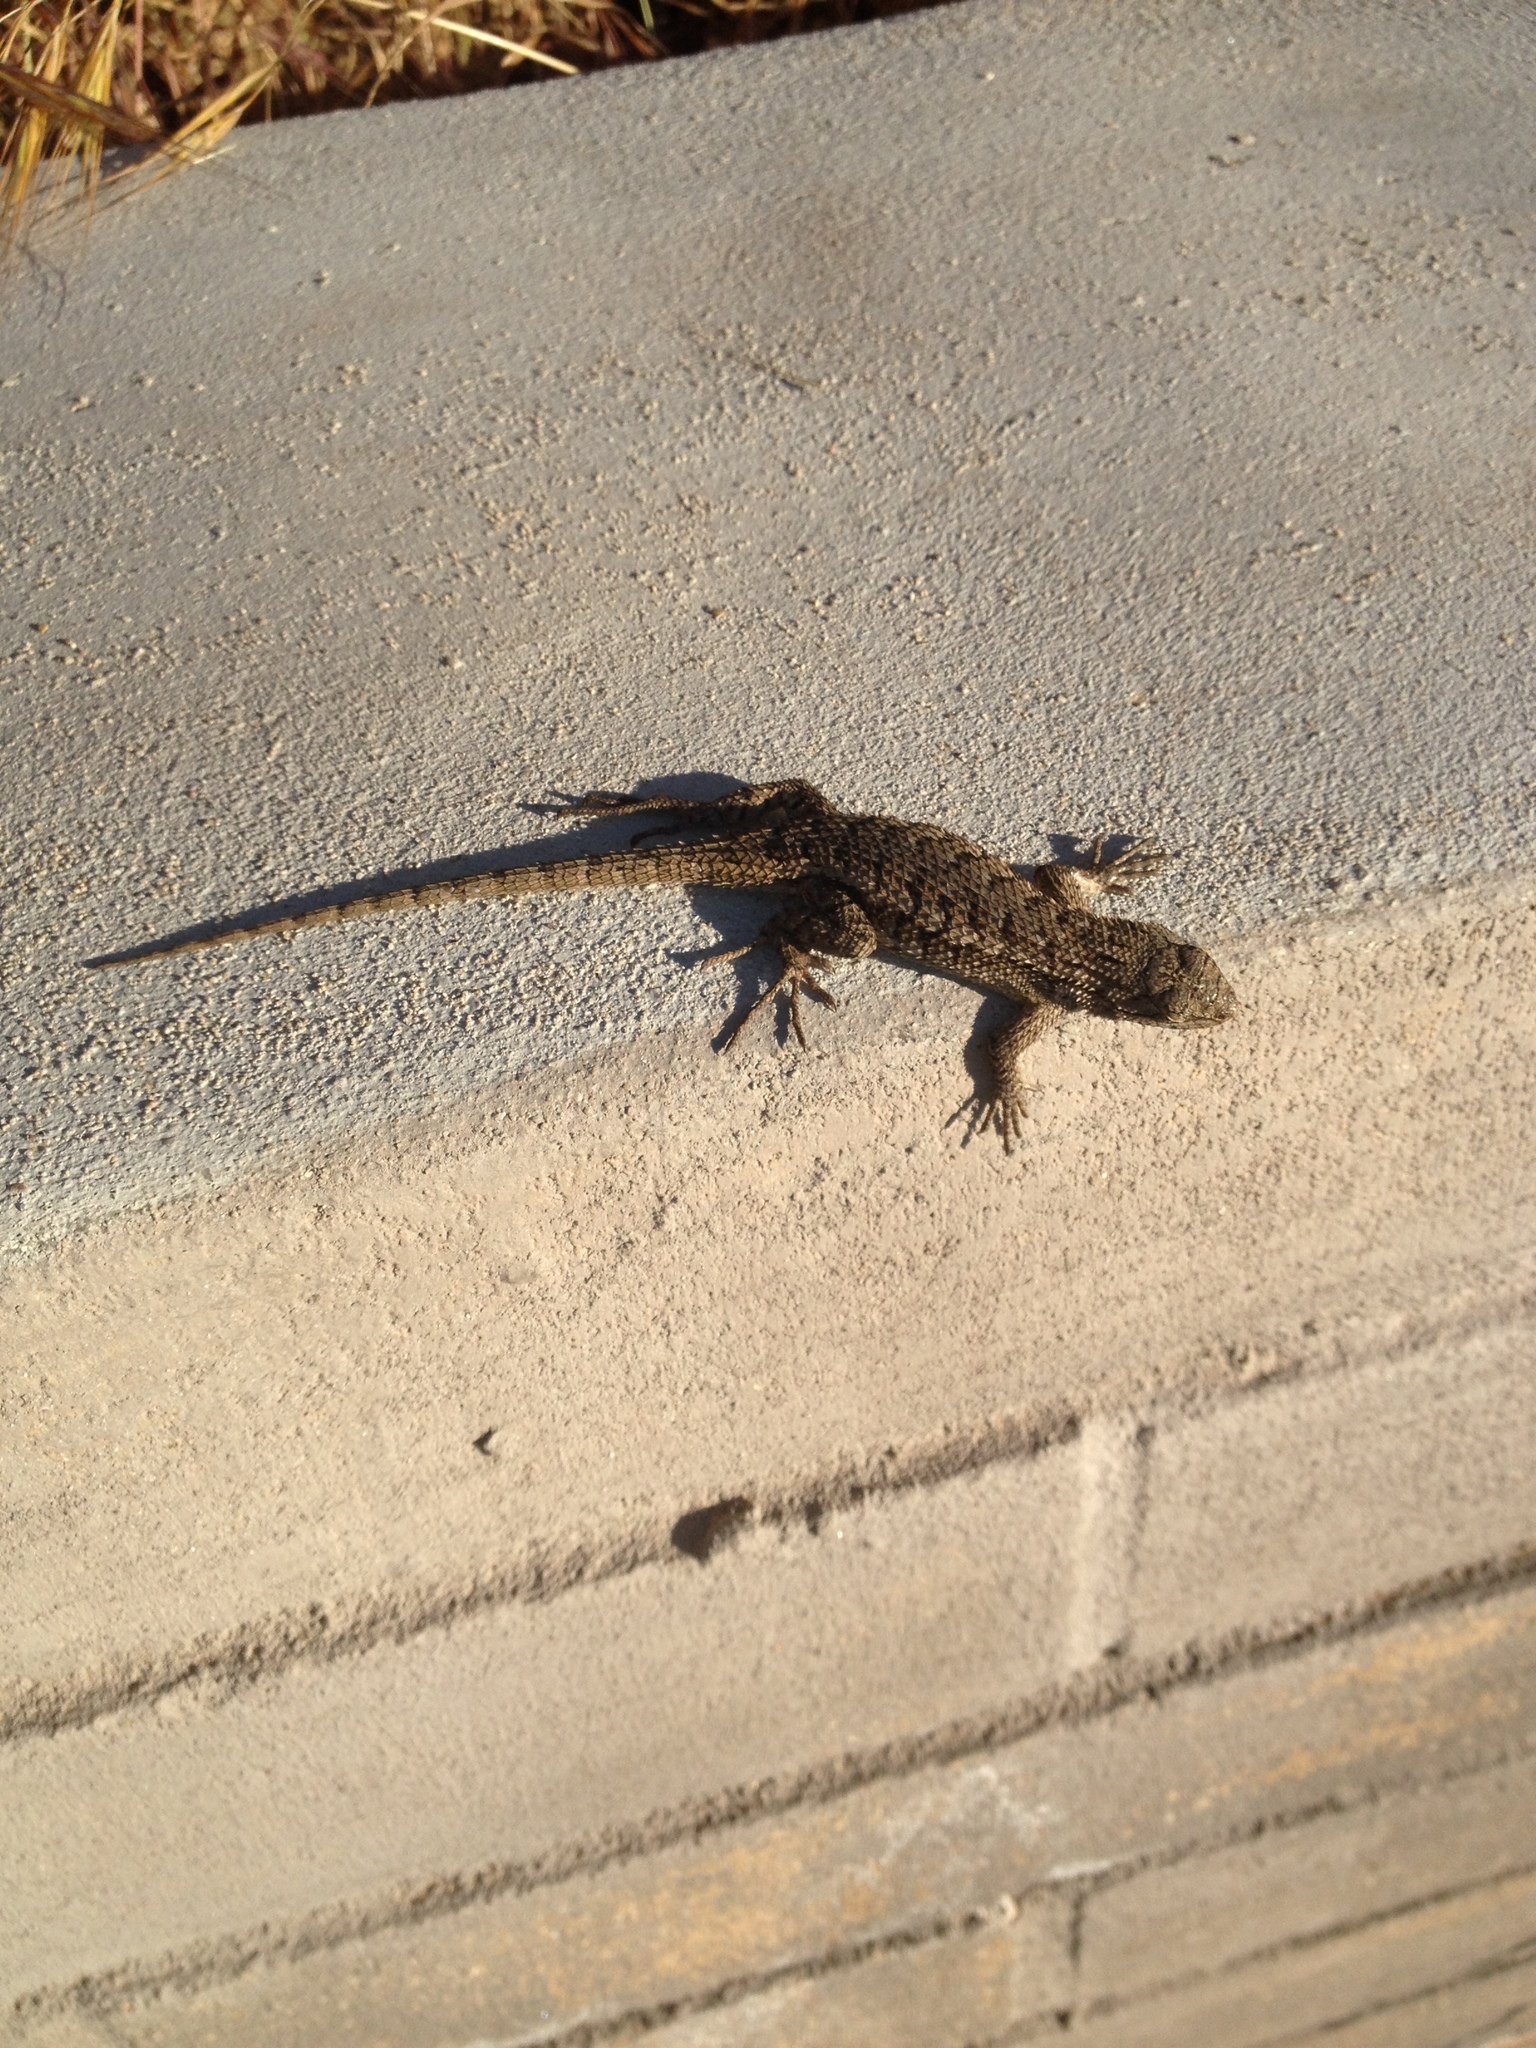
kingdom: Animalia
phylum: Chordata
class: Squamata
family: Phrynosomatidae
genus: Sceloporus
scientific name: Sceloporus occidentalis
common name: Western fence lizard
